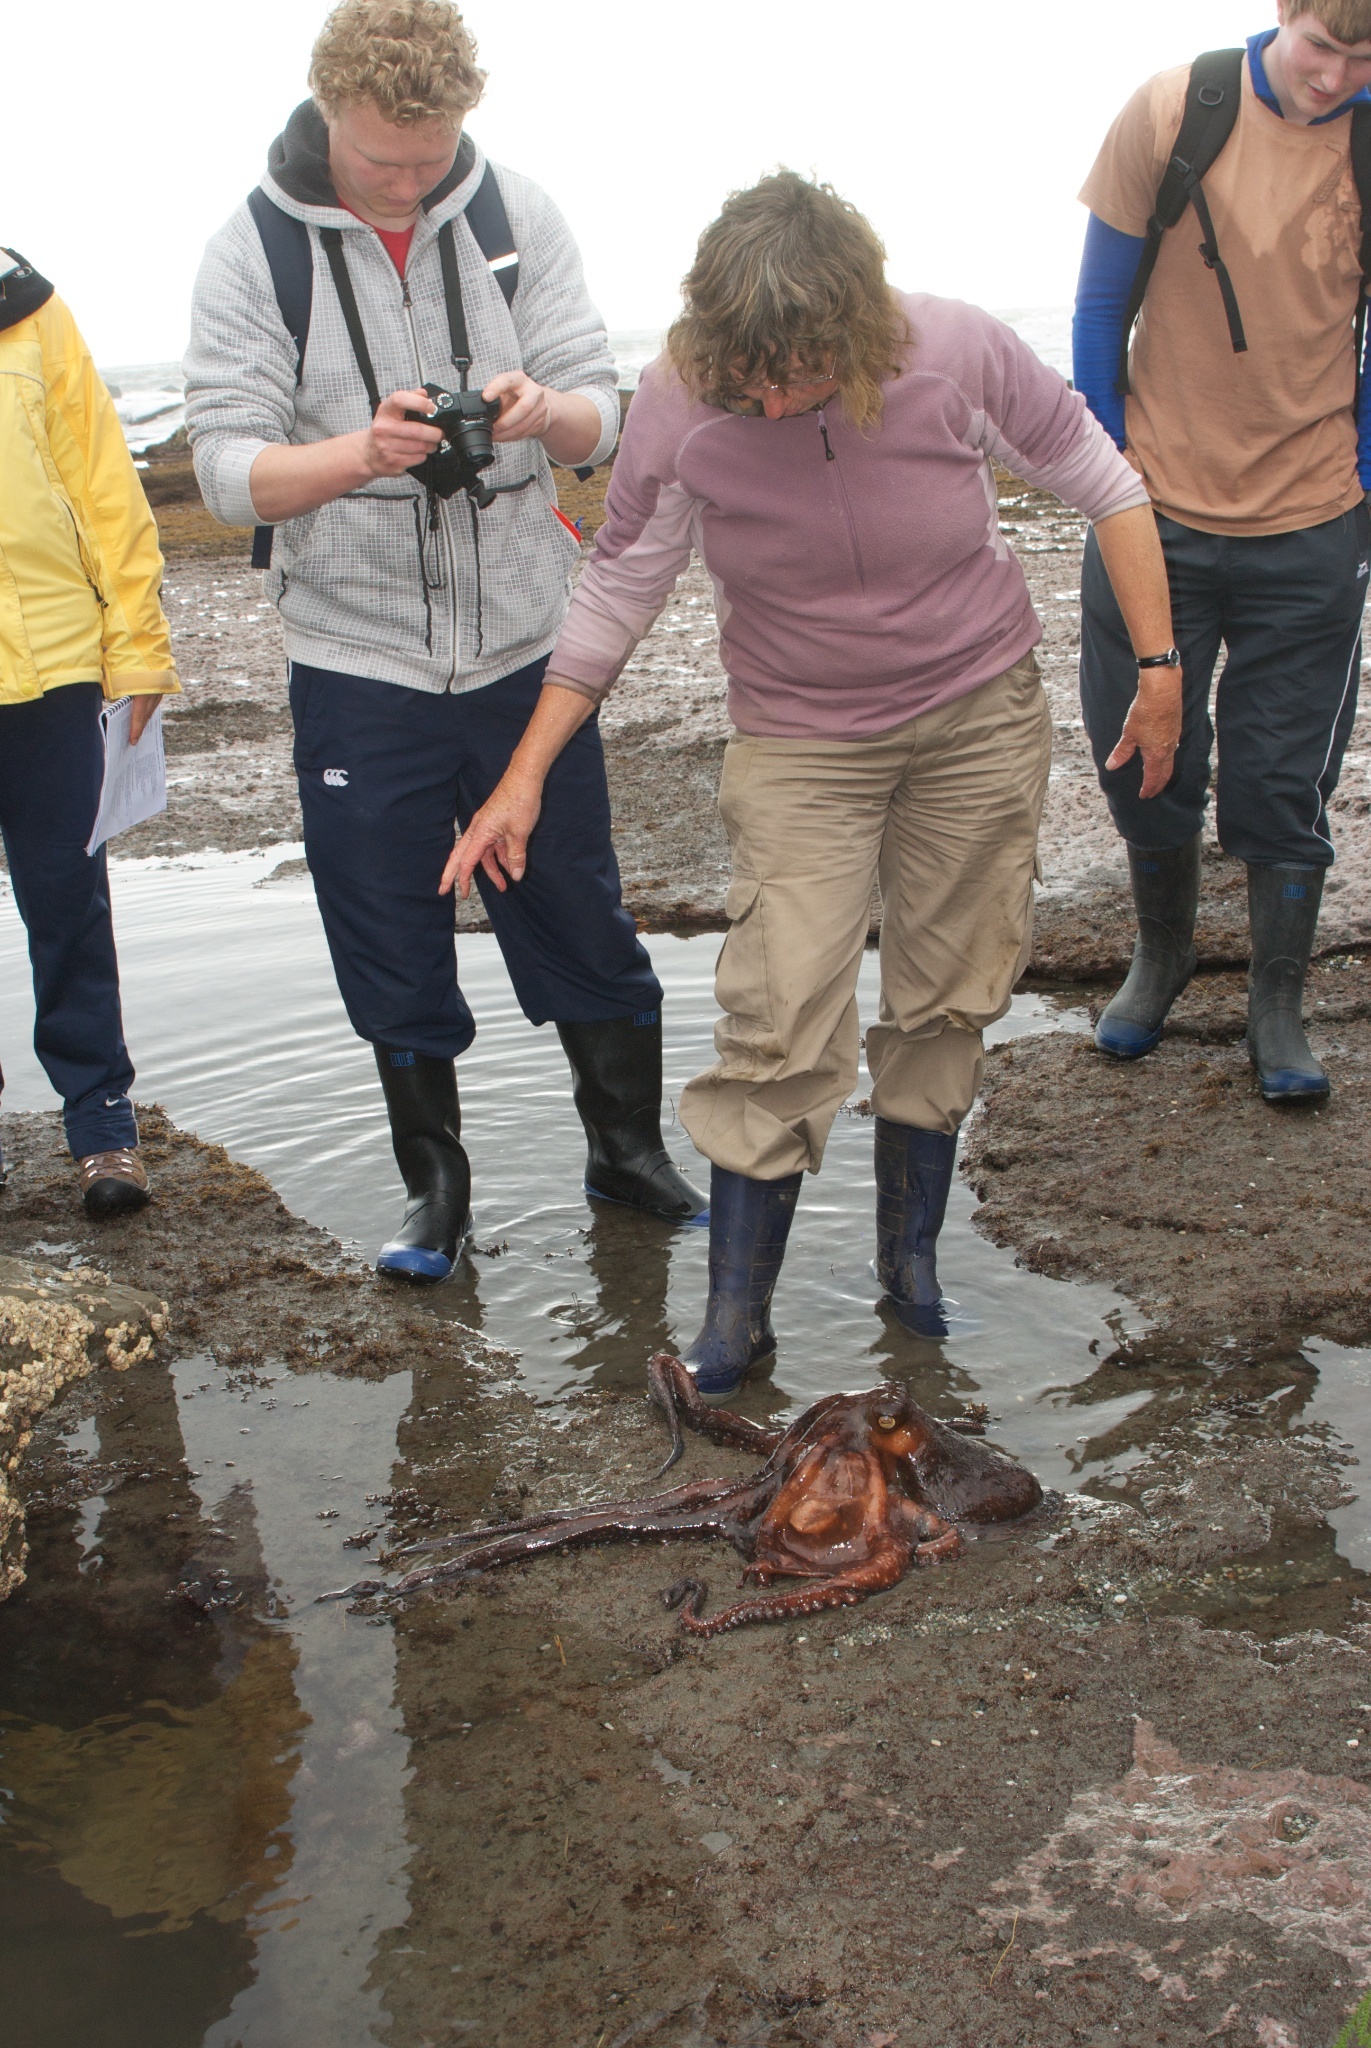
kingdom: Animalia
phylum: Mollusca
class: Cephalopoda
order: Octopoda
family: Octopodidae
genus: Macroctopus
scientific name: Macroctopus maorum
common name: Maori octopus
